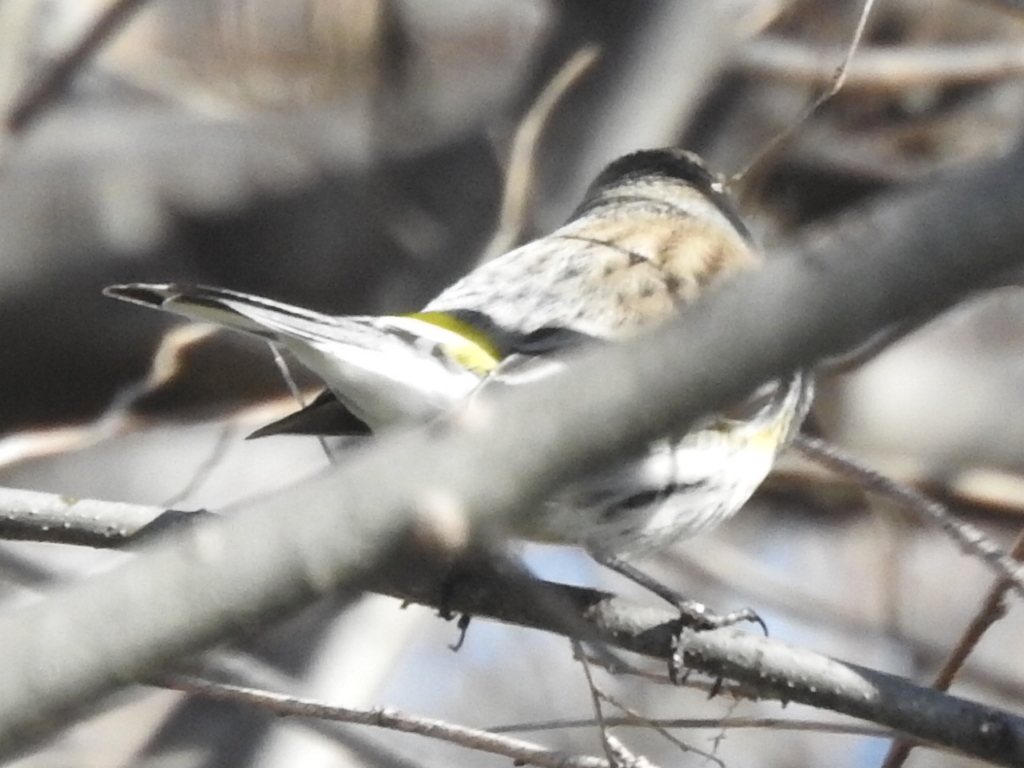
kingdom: Animalia
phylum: Chordata
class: Aves
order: Passeriformes
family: Parulidae
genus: Setophaga
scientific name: Setophaga coronata
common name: Myrtle warbler
